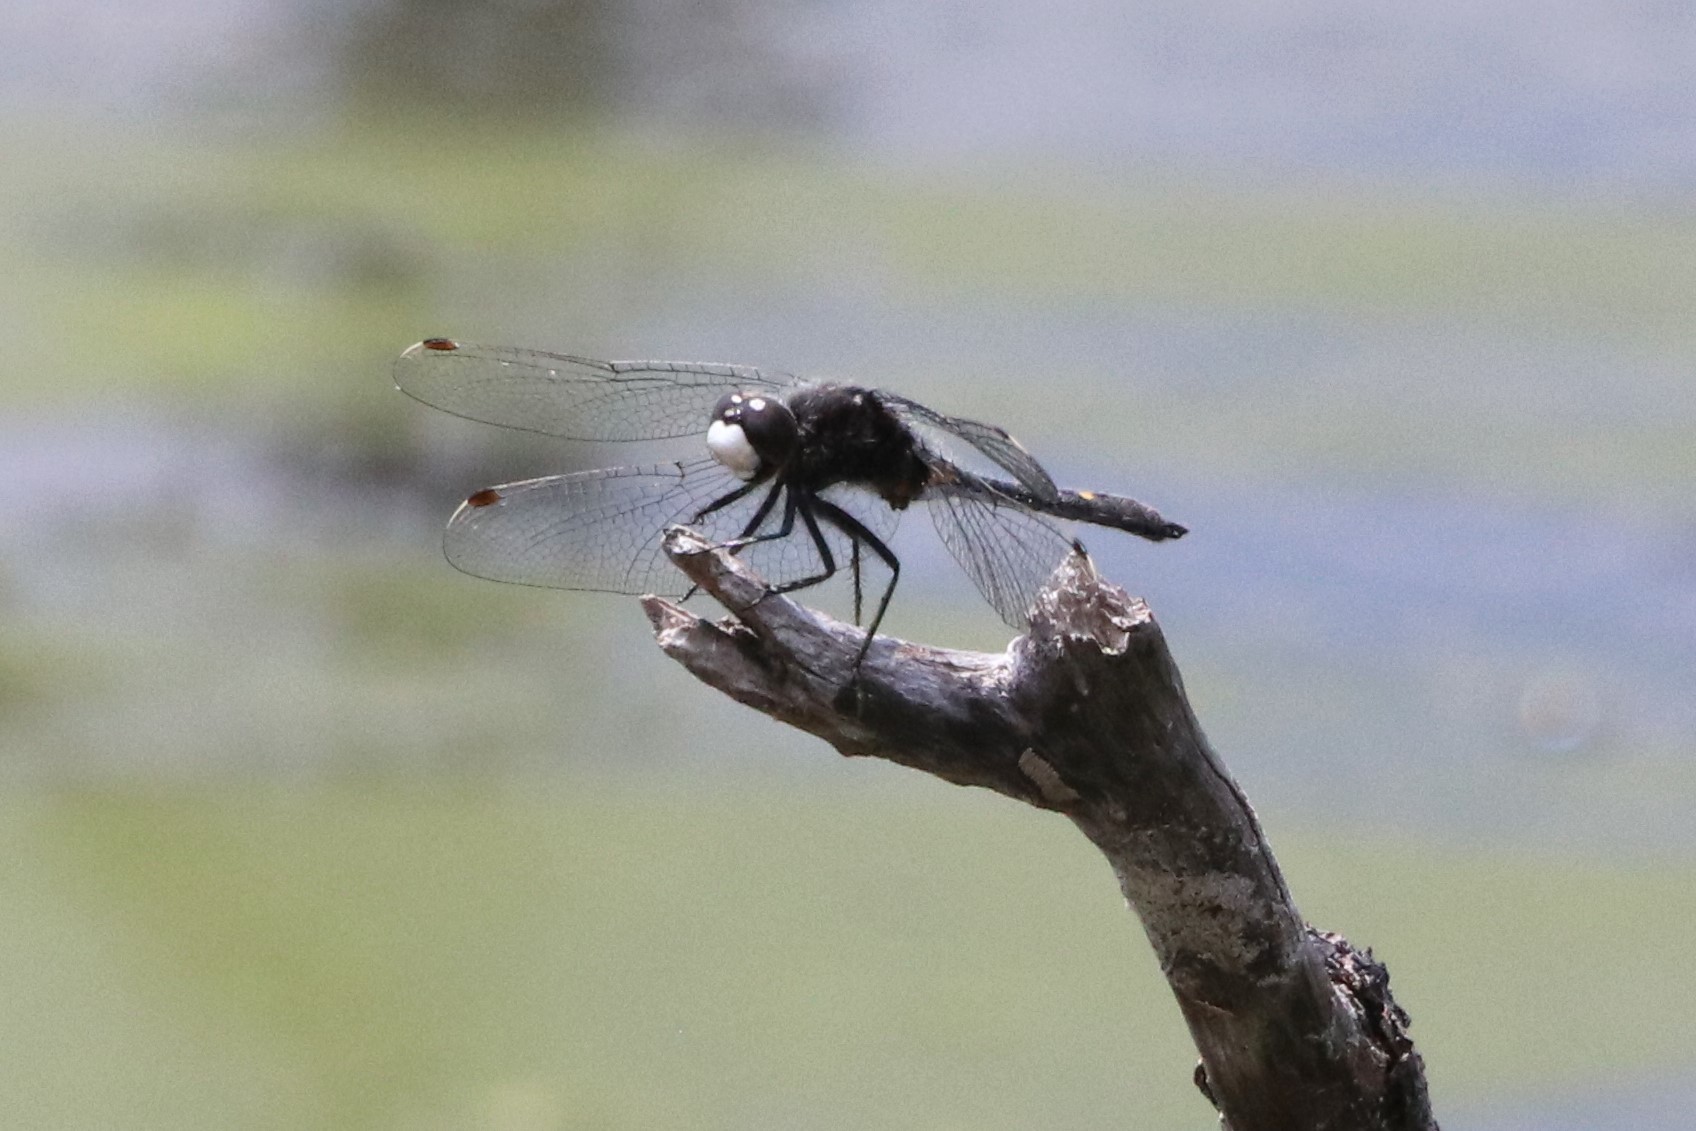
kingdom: Animalia
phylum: Arthropoda
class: Insecta
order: Odonata
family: Libellulidae
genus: Leucorrhinia
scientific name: Leucorrhinia intacta
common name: Dot-tailed whiteface
